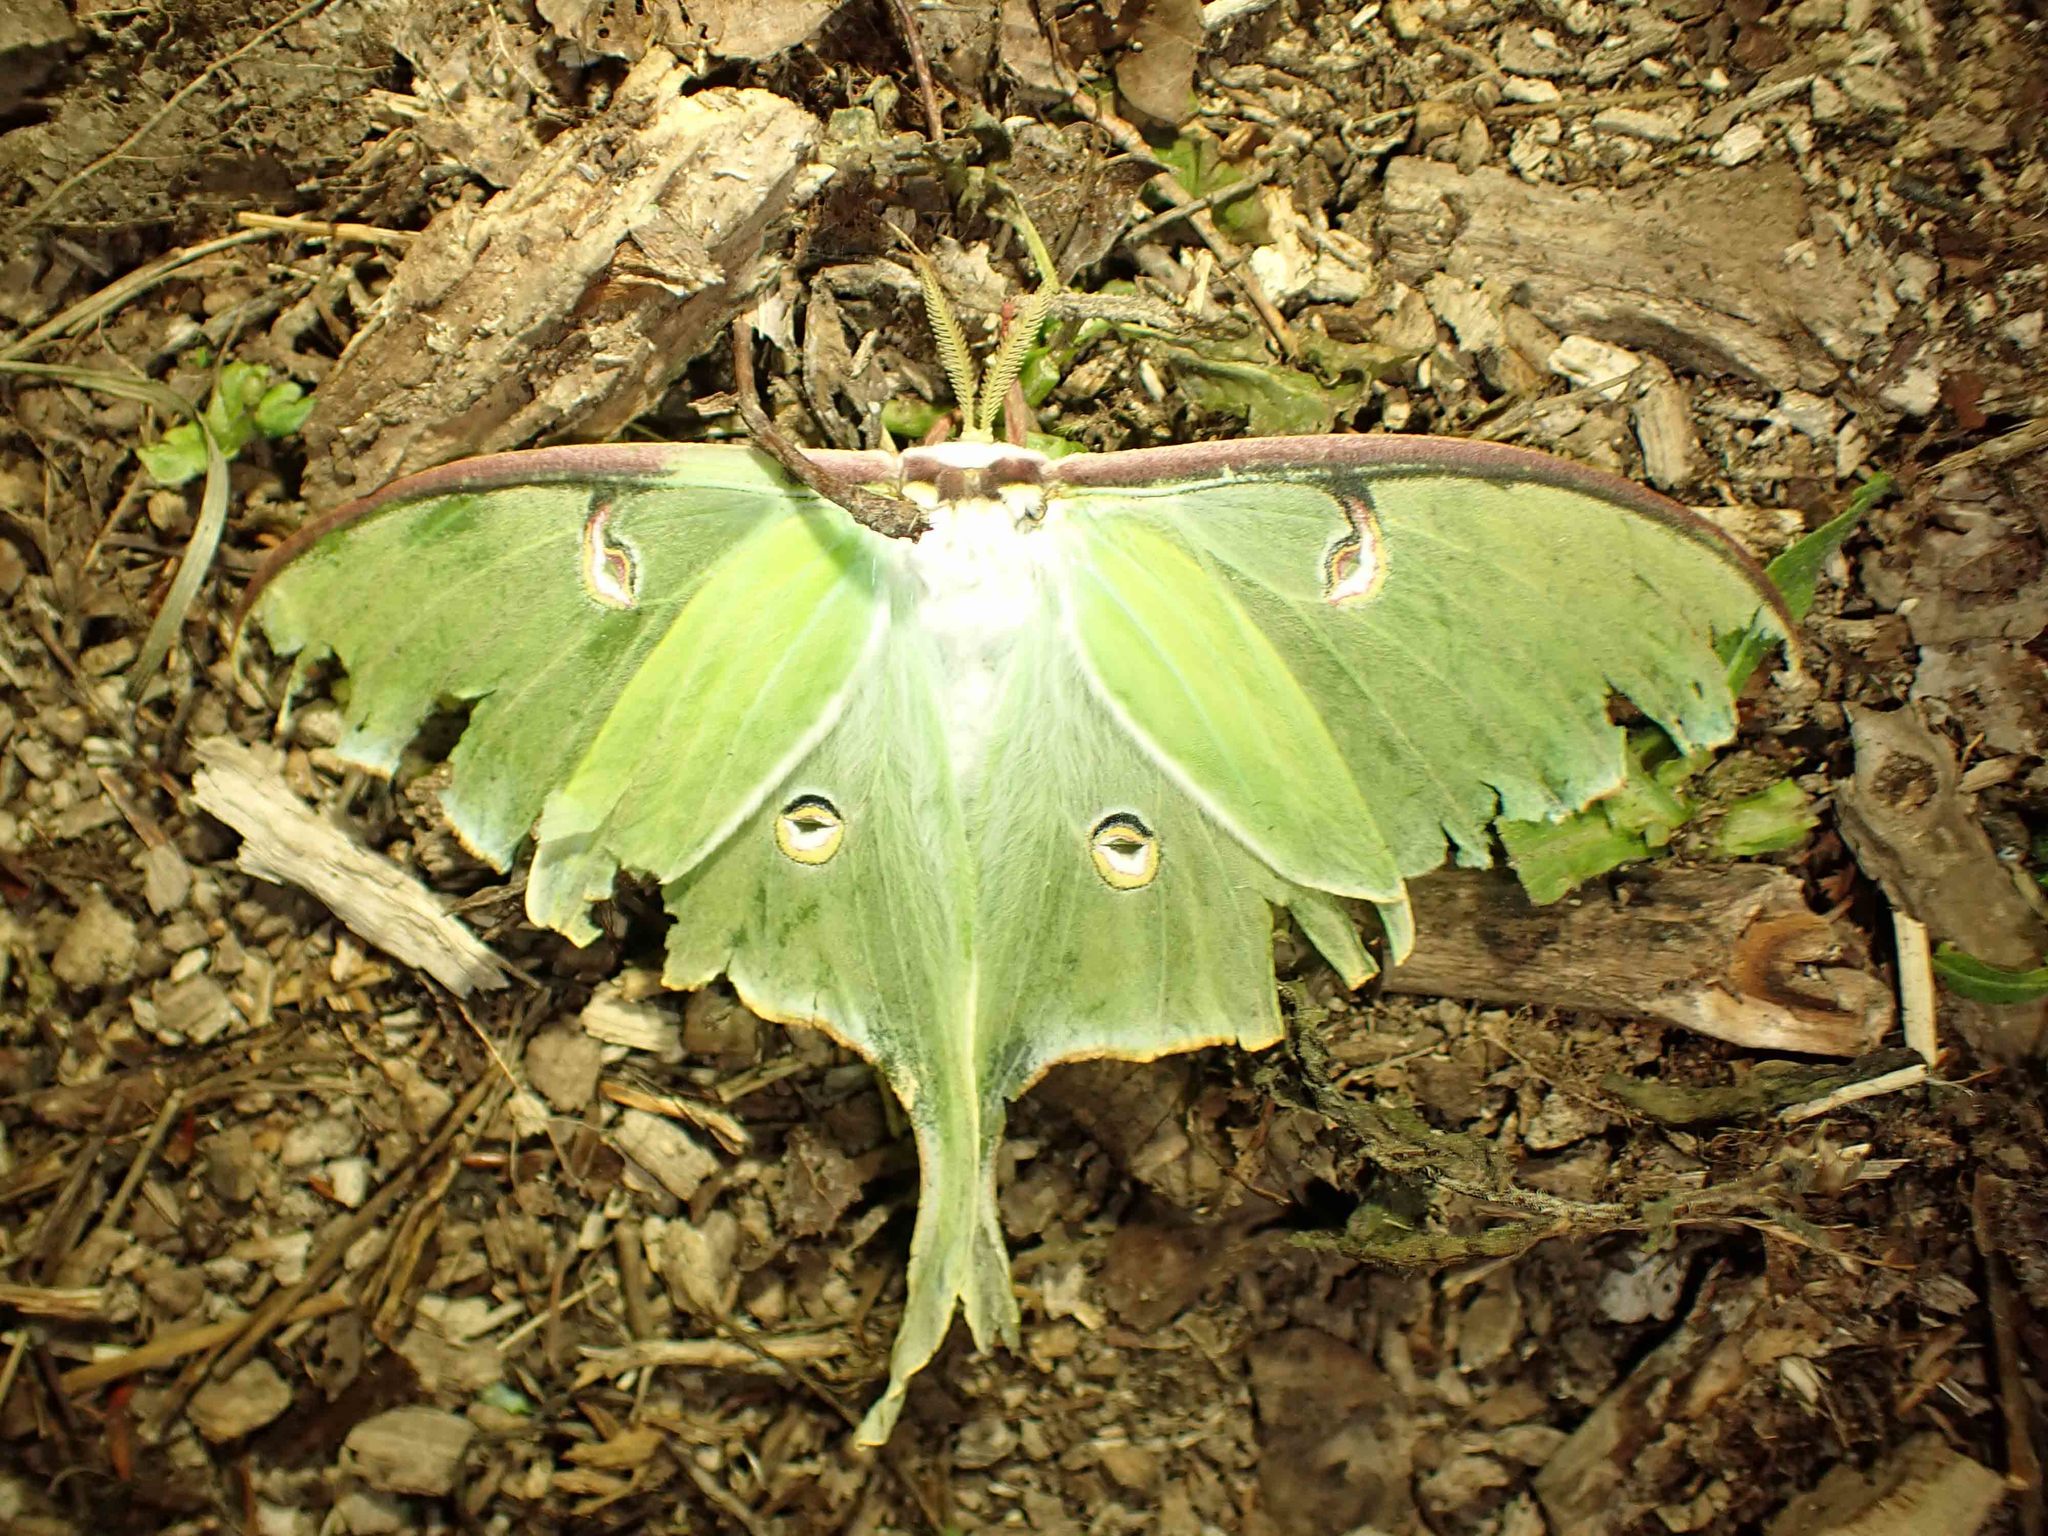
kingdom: Animalia
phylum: Arthropoda
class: Insecta
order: Lepidoptera
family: Saturniidae
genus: Actias
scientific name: Actias luna
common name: Luna moth
